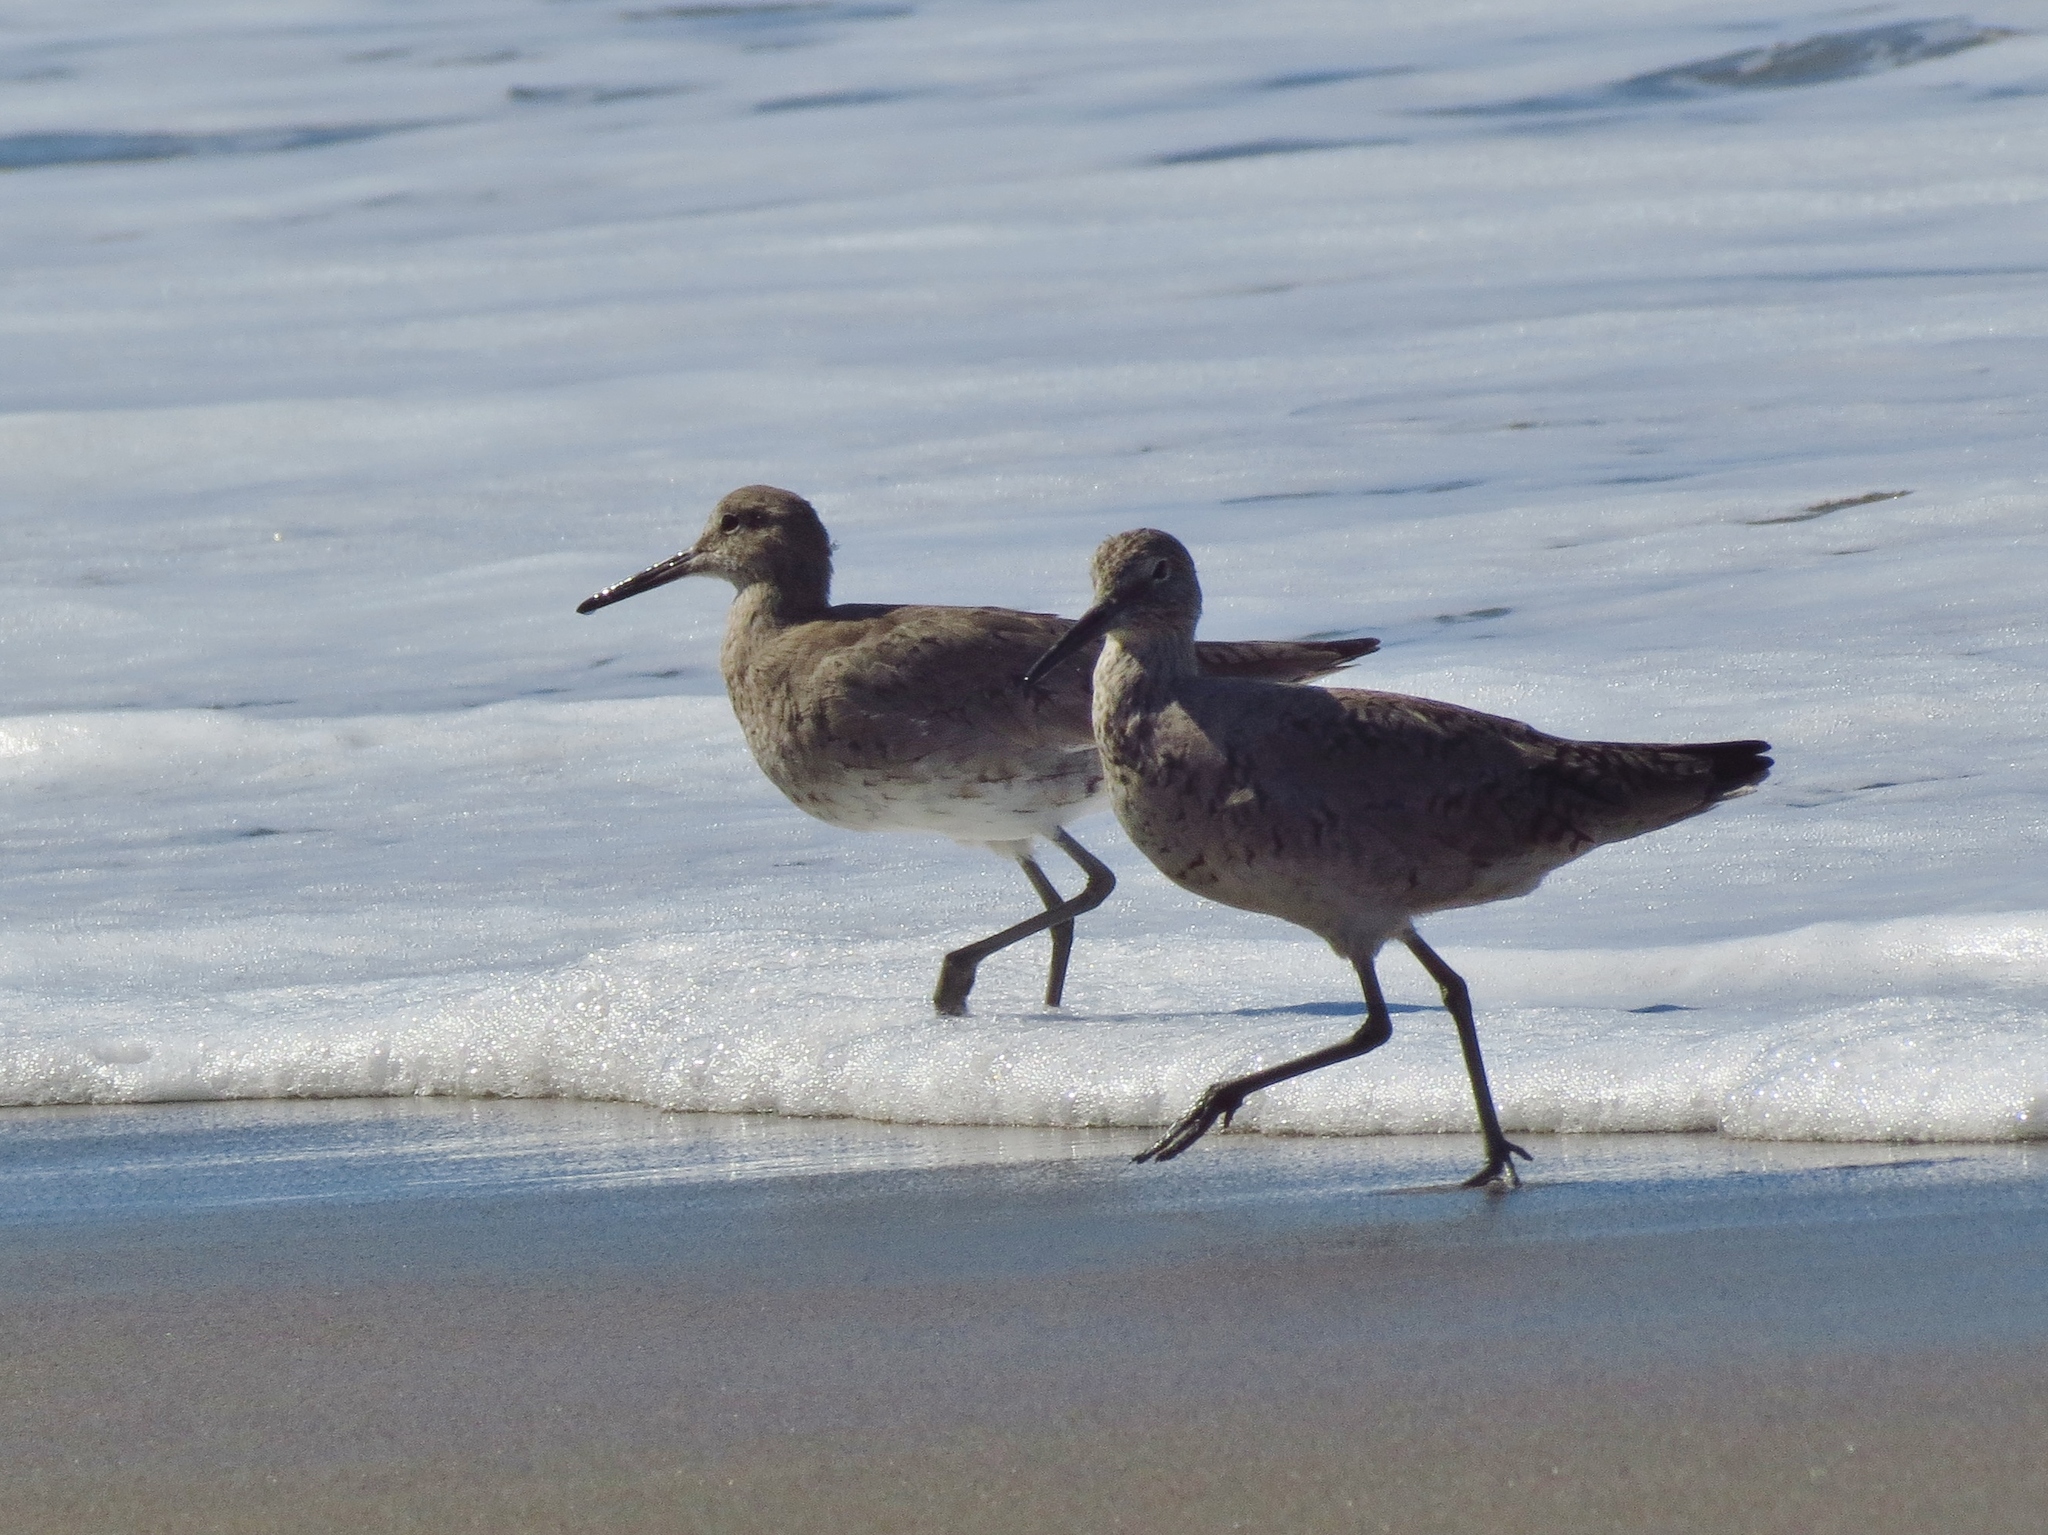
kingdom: Animalia
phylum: Chordata
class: Aves
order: Charadriiformes
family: Scolopacidae
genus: Tringa
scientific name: Tringa semipalmata
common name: Willet
